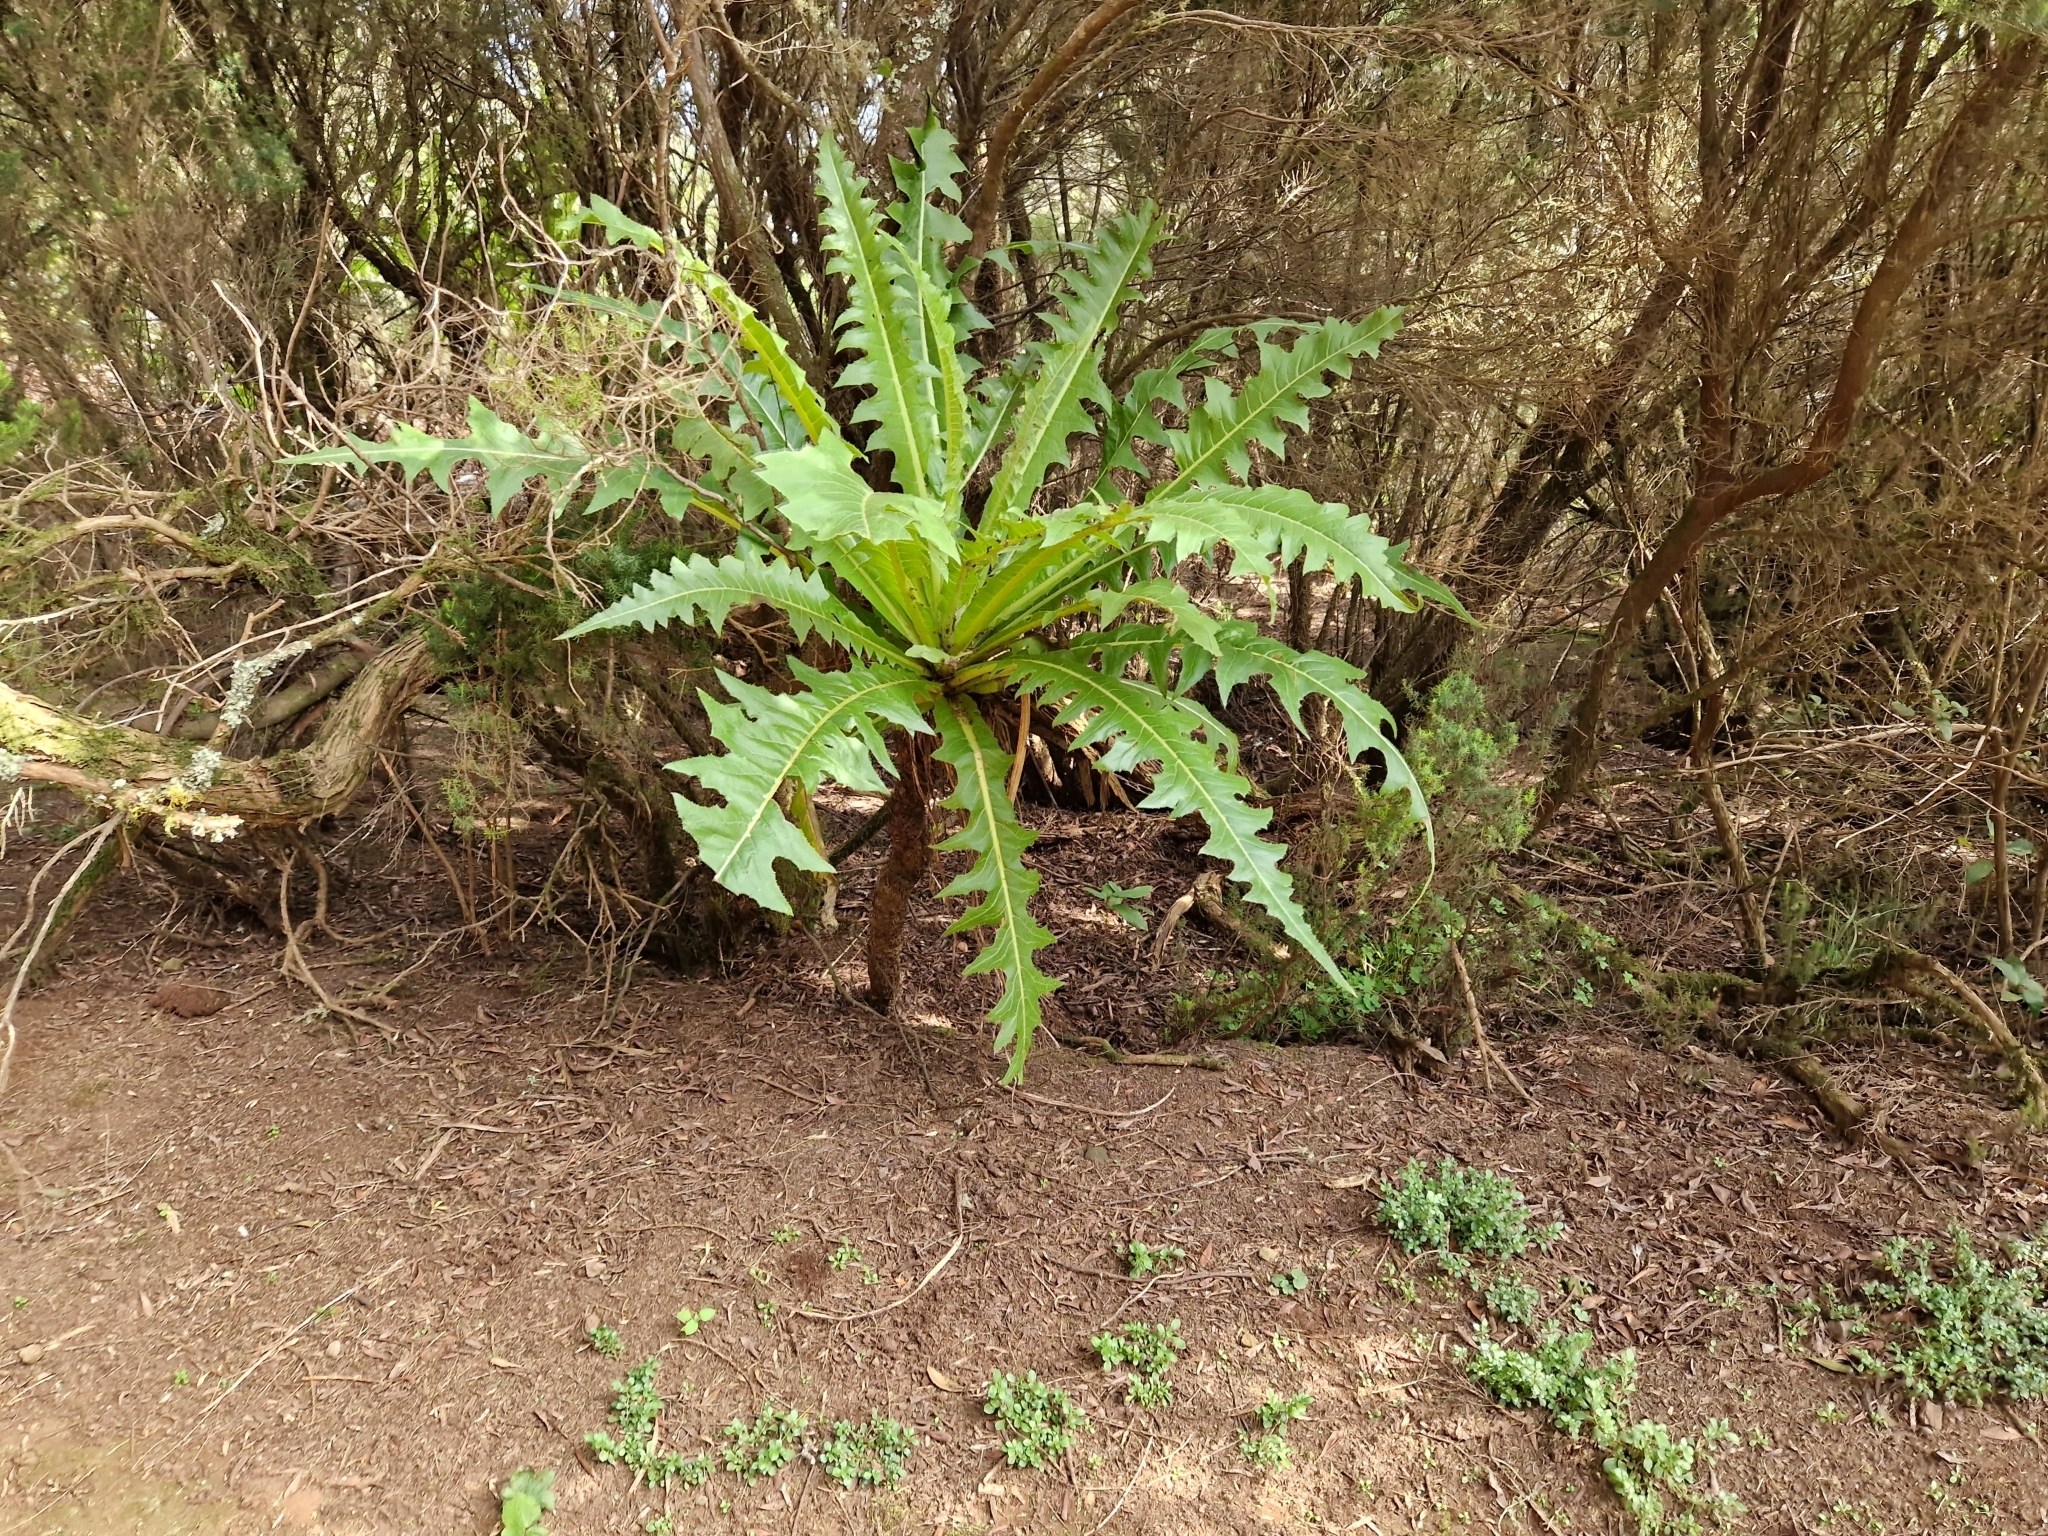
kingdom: Plantae
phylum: Tracheophyta
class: Magnoliopsida
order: Asterales
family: Asteraceae
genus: Sonchus
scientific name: Sonchus congestus
